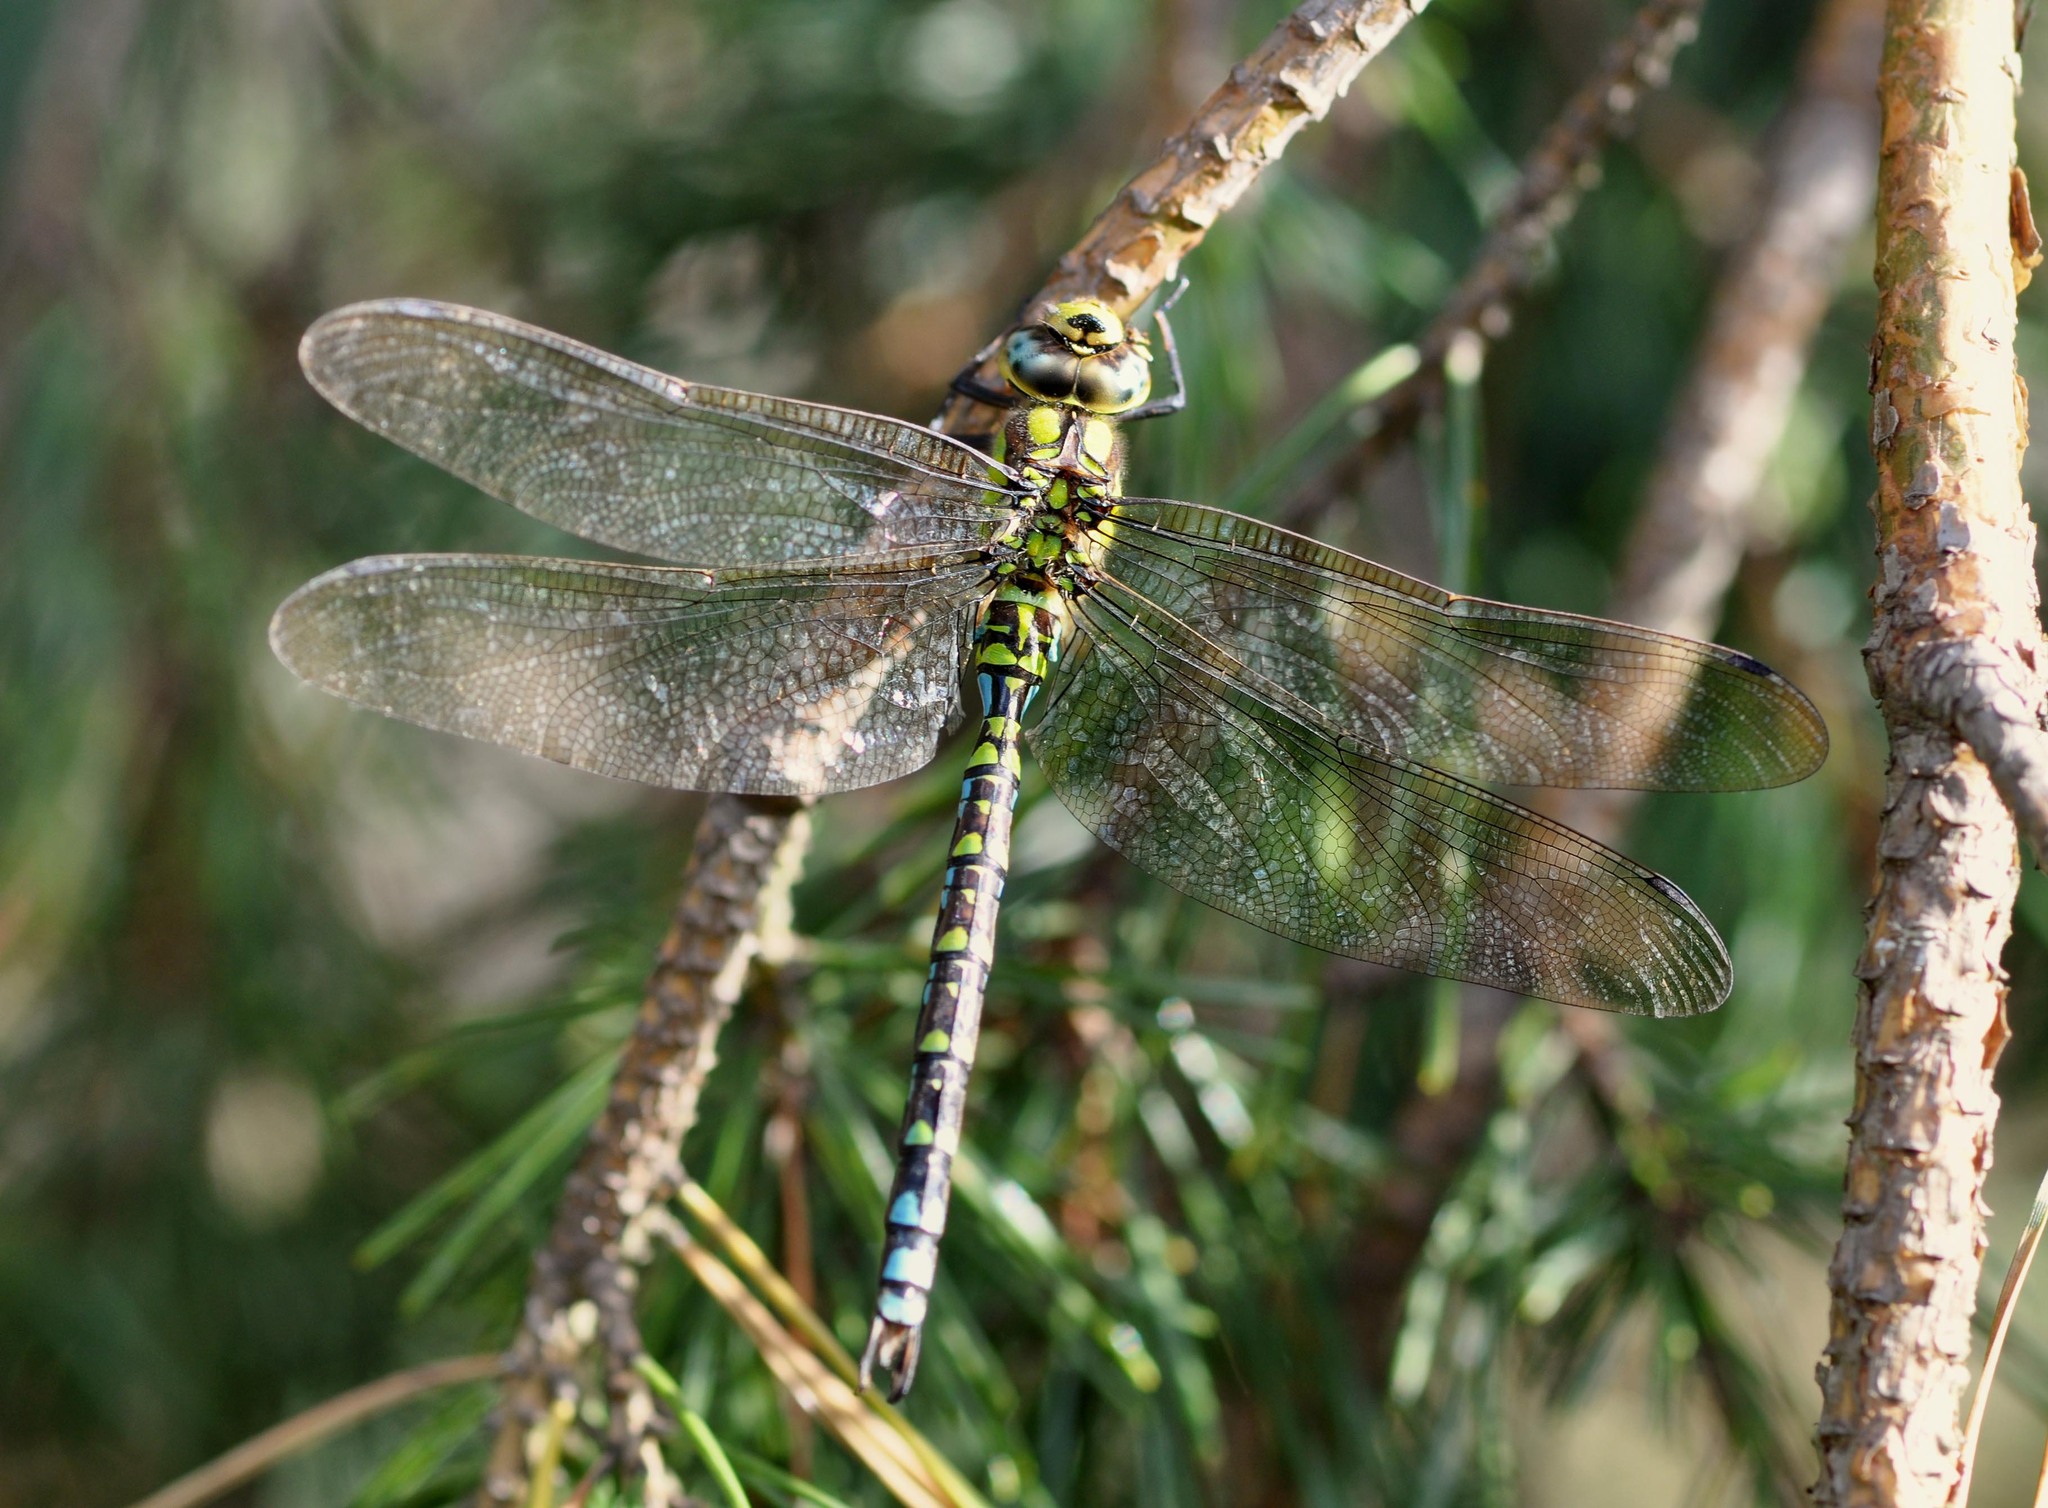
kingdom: Animalia
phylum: Arthropoda
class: Insecta
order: Odonata
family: Aeshnidae
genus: Aeshna
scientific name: Aeshna cyanea
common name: Southern hawker
